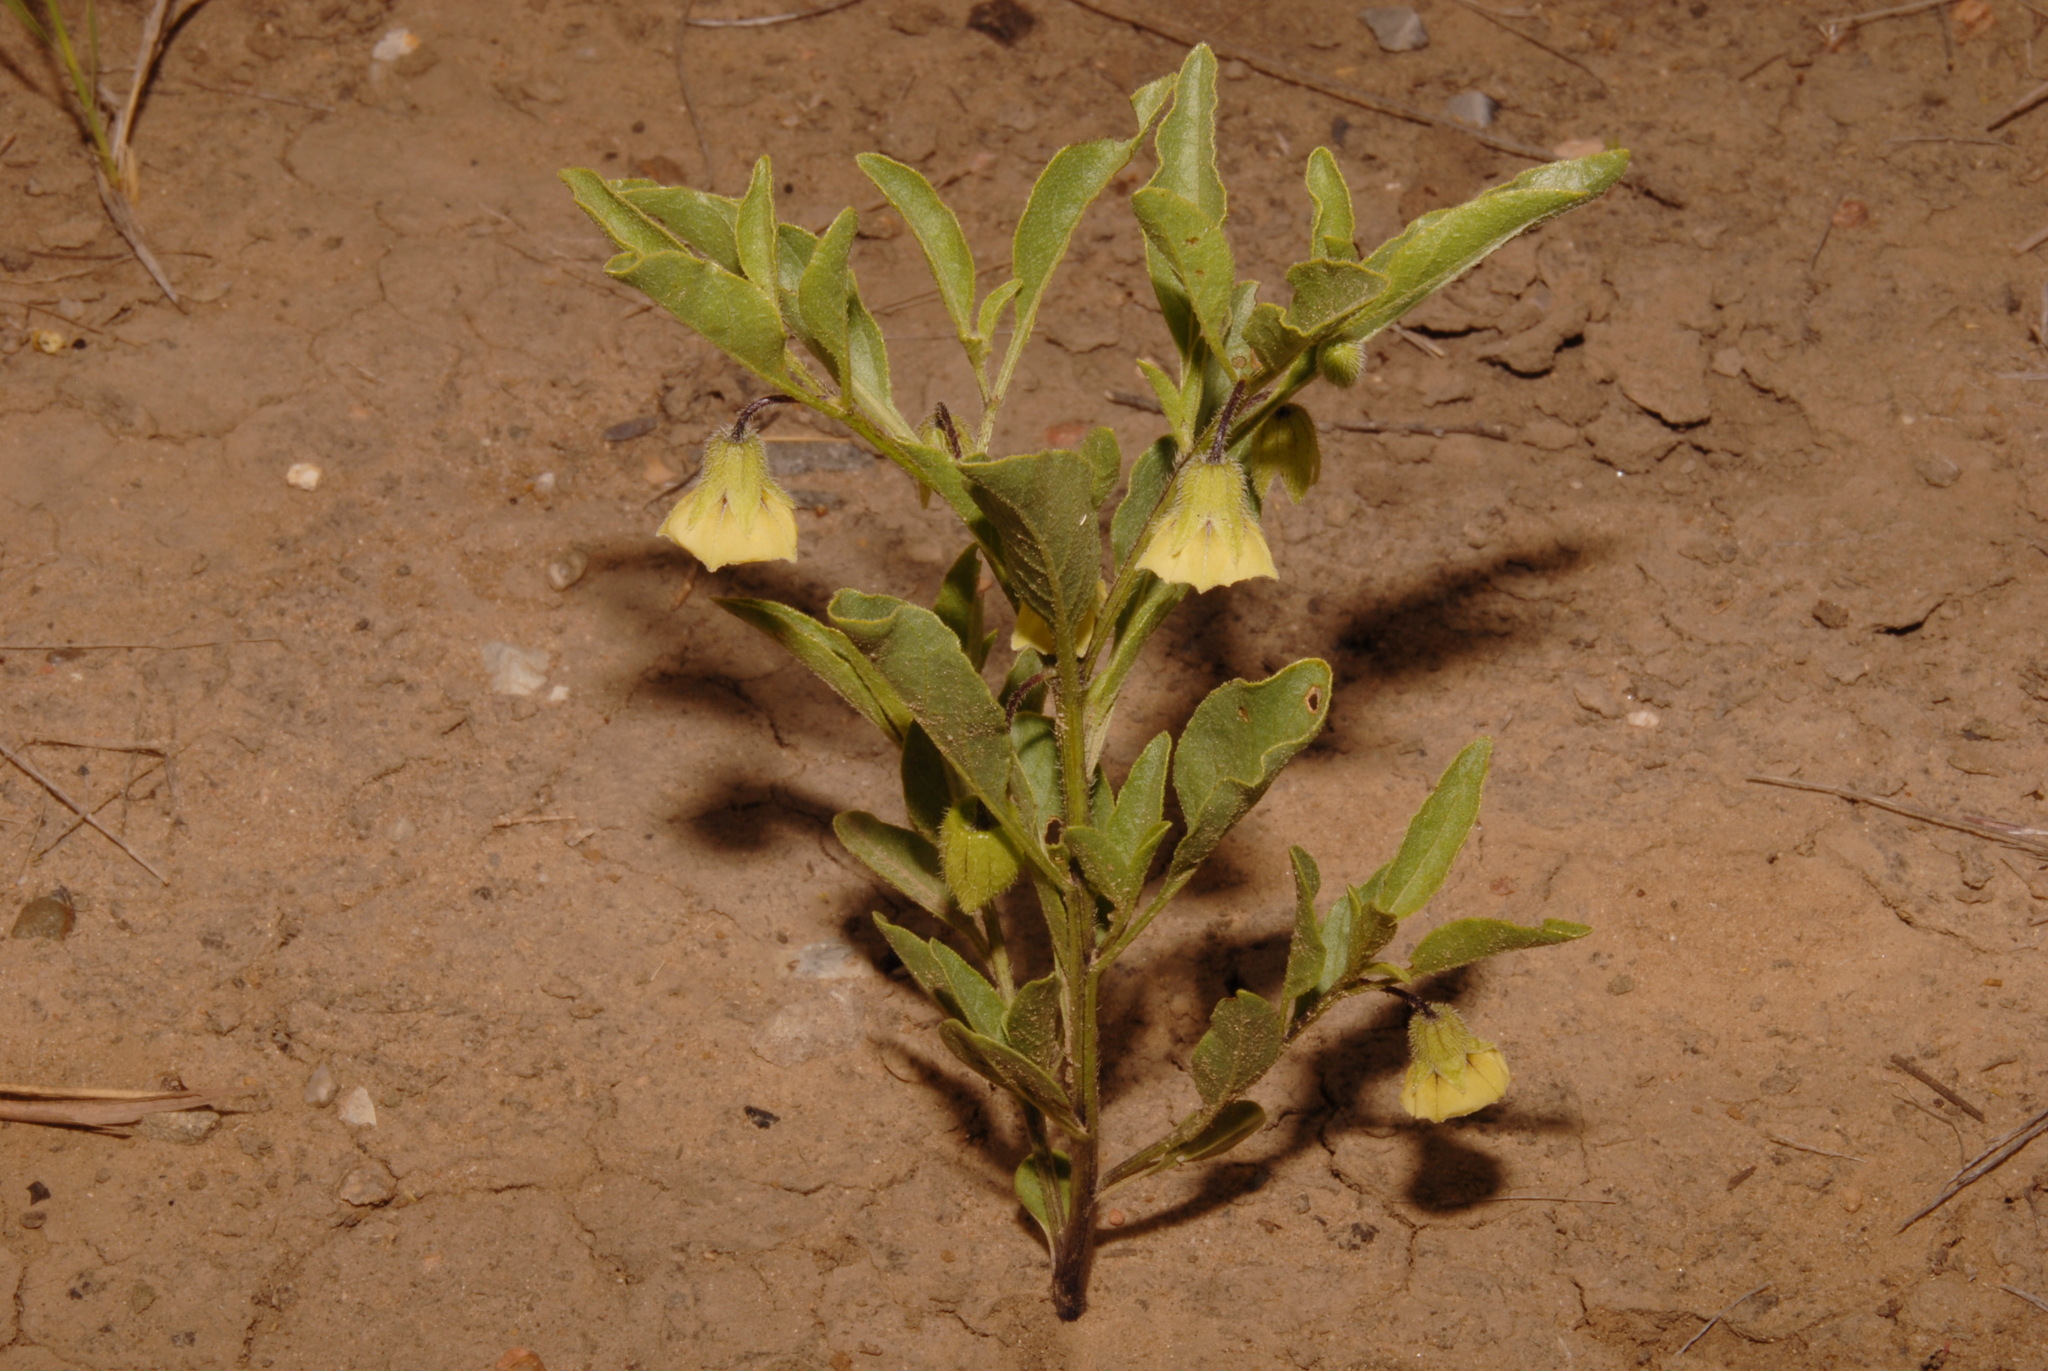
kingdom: Plantae
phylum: Tracheophyta
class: Magnoliopsida
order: Solanales
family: Solanaceae
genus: Physalis
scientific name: Physalis pumila
